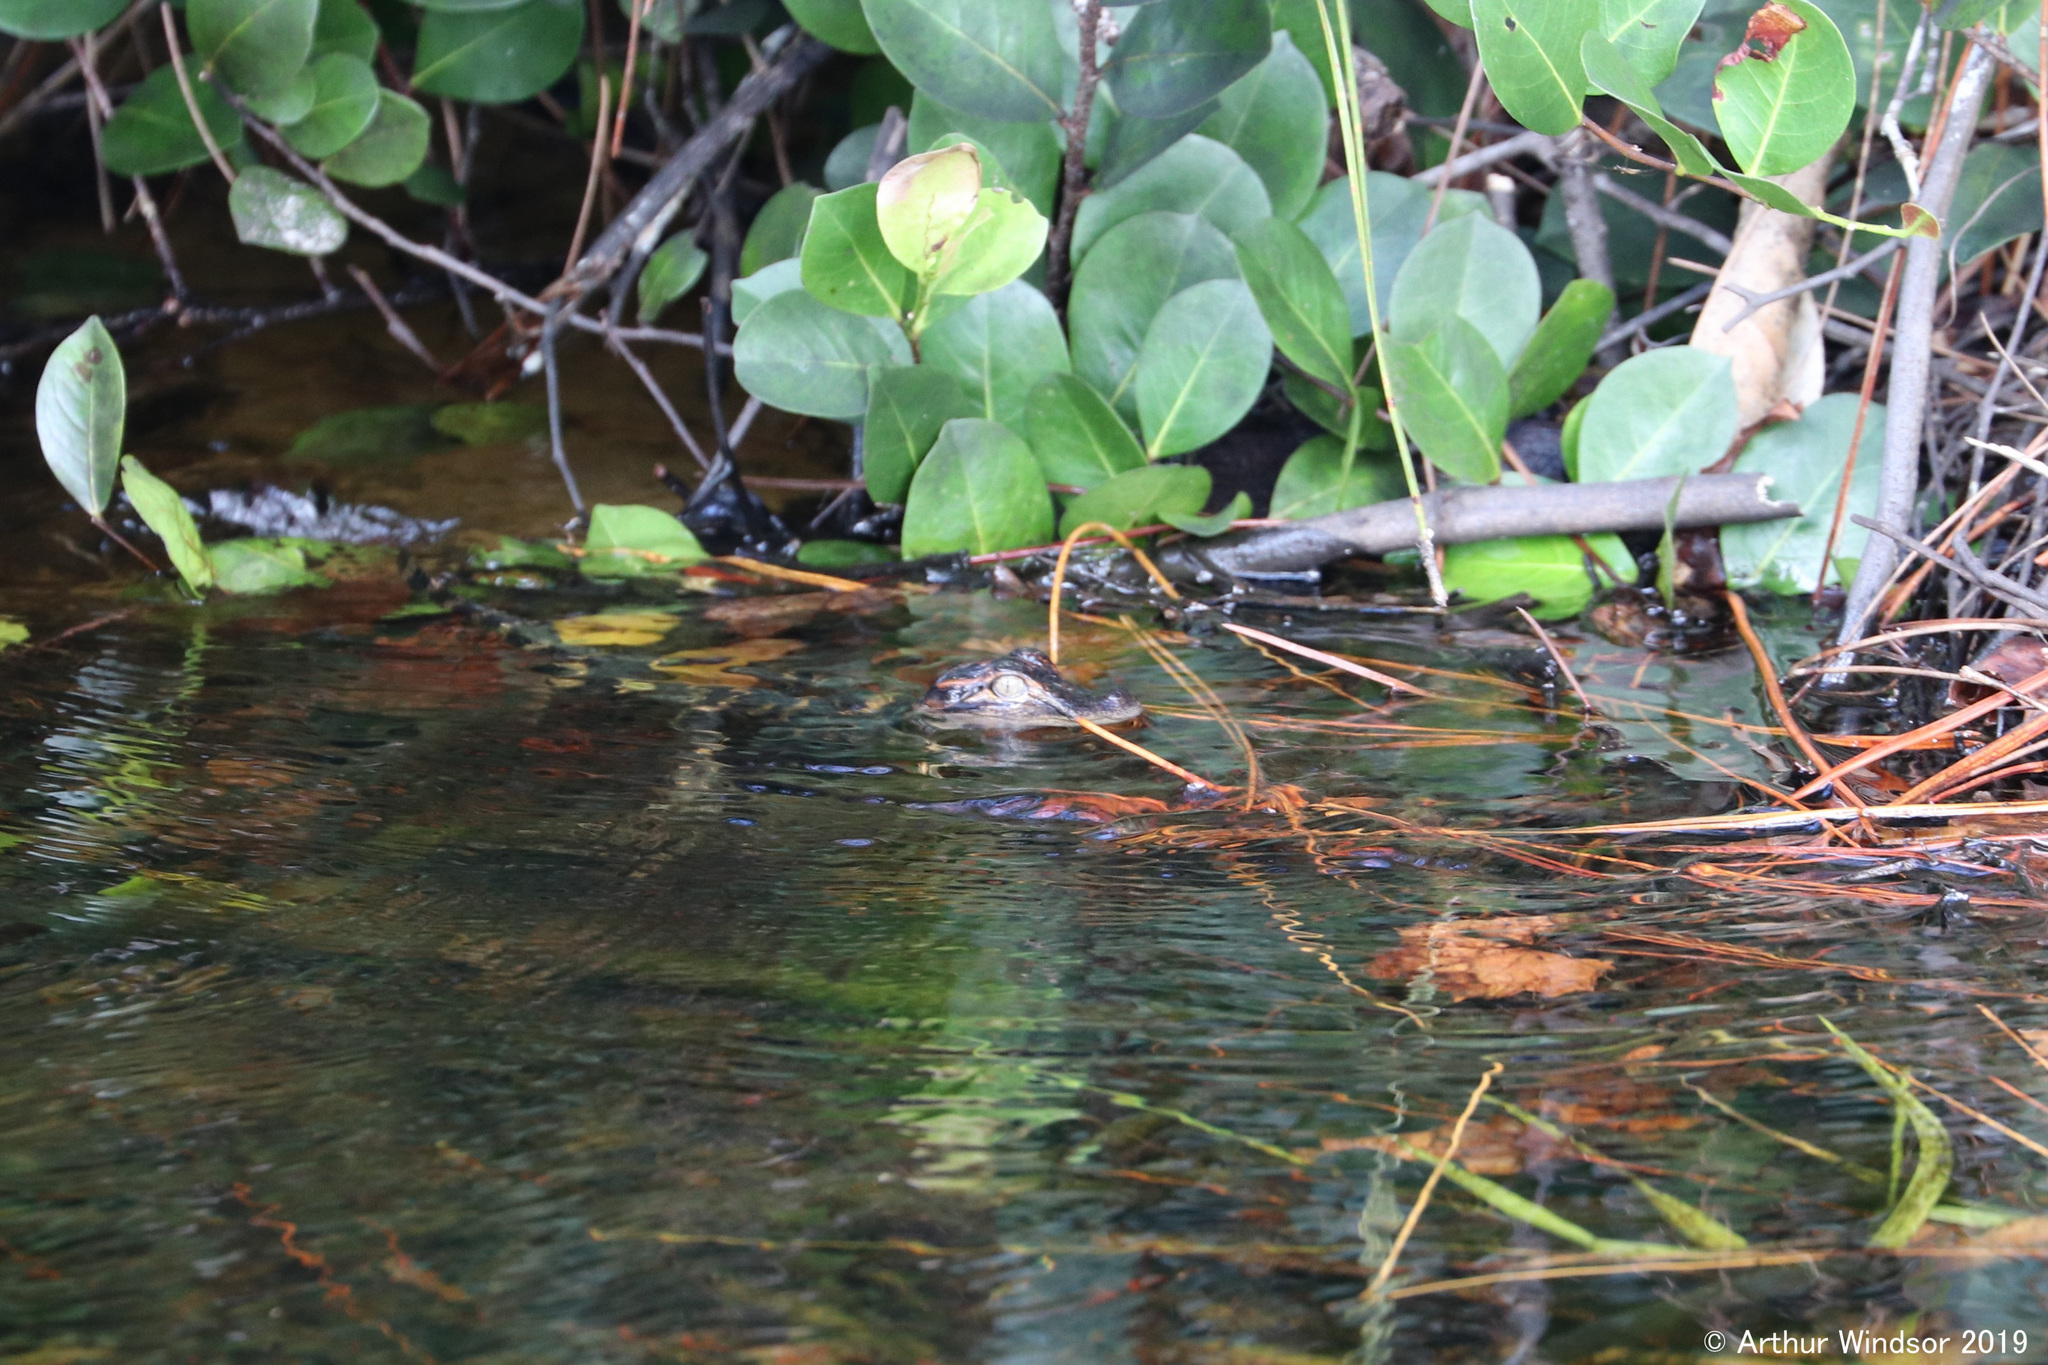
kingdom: Animalia
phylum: Chordata
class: Crocodylia
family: Alligatoridae
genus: Alligator
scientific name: Alligator mississippiensis
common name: American alligator
